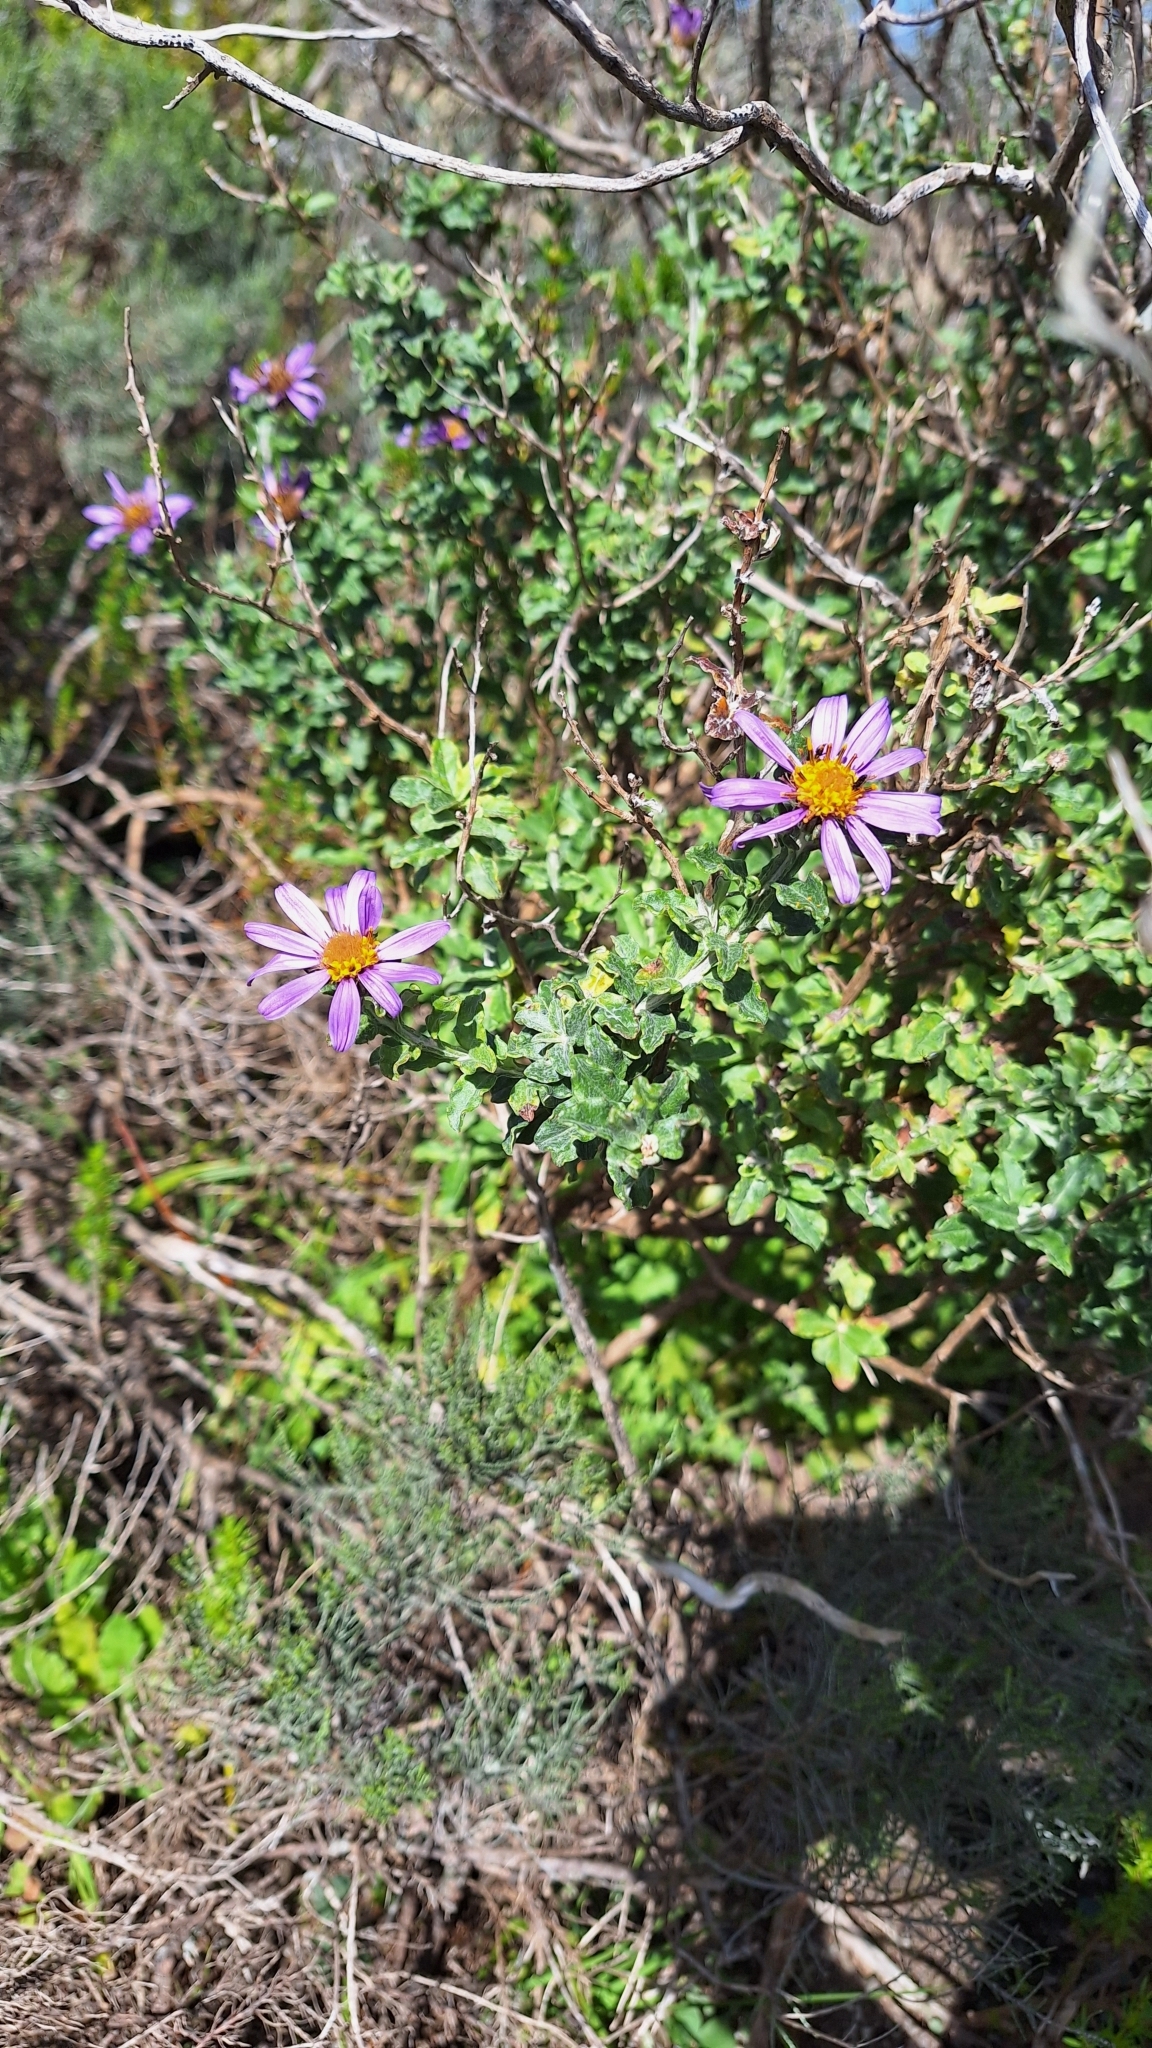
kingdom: Plantae
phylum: Tracheophyta
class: Magnoliopsida
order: Asterales
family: Asteraceae
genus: Printzia
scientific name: Printzia polifolia
